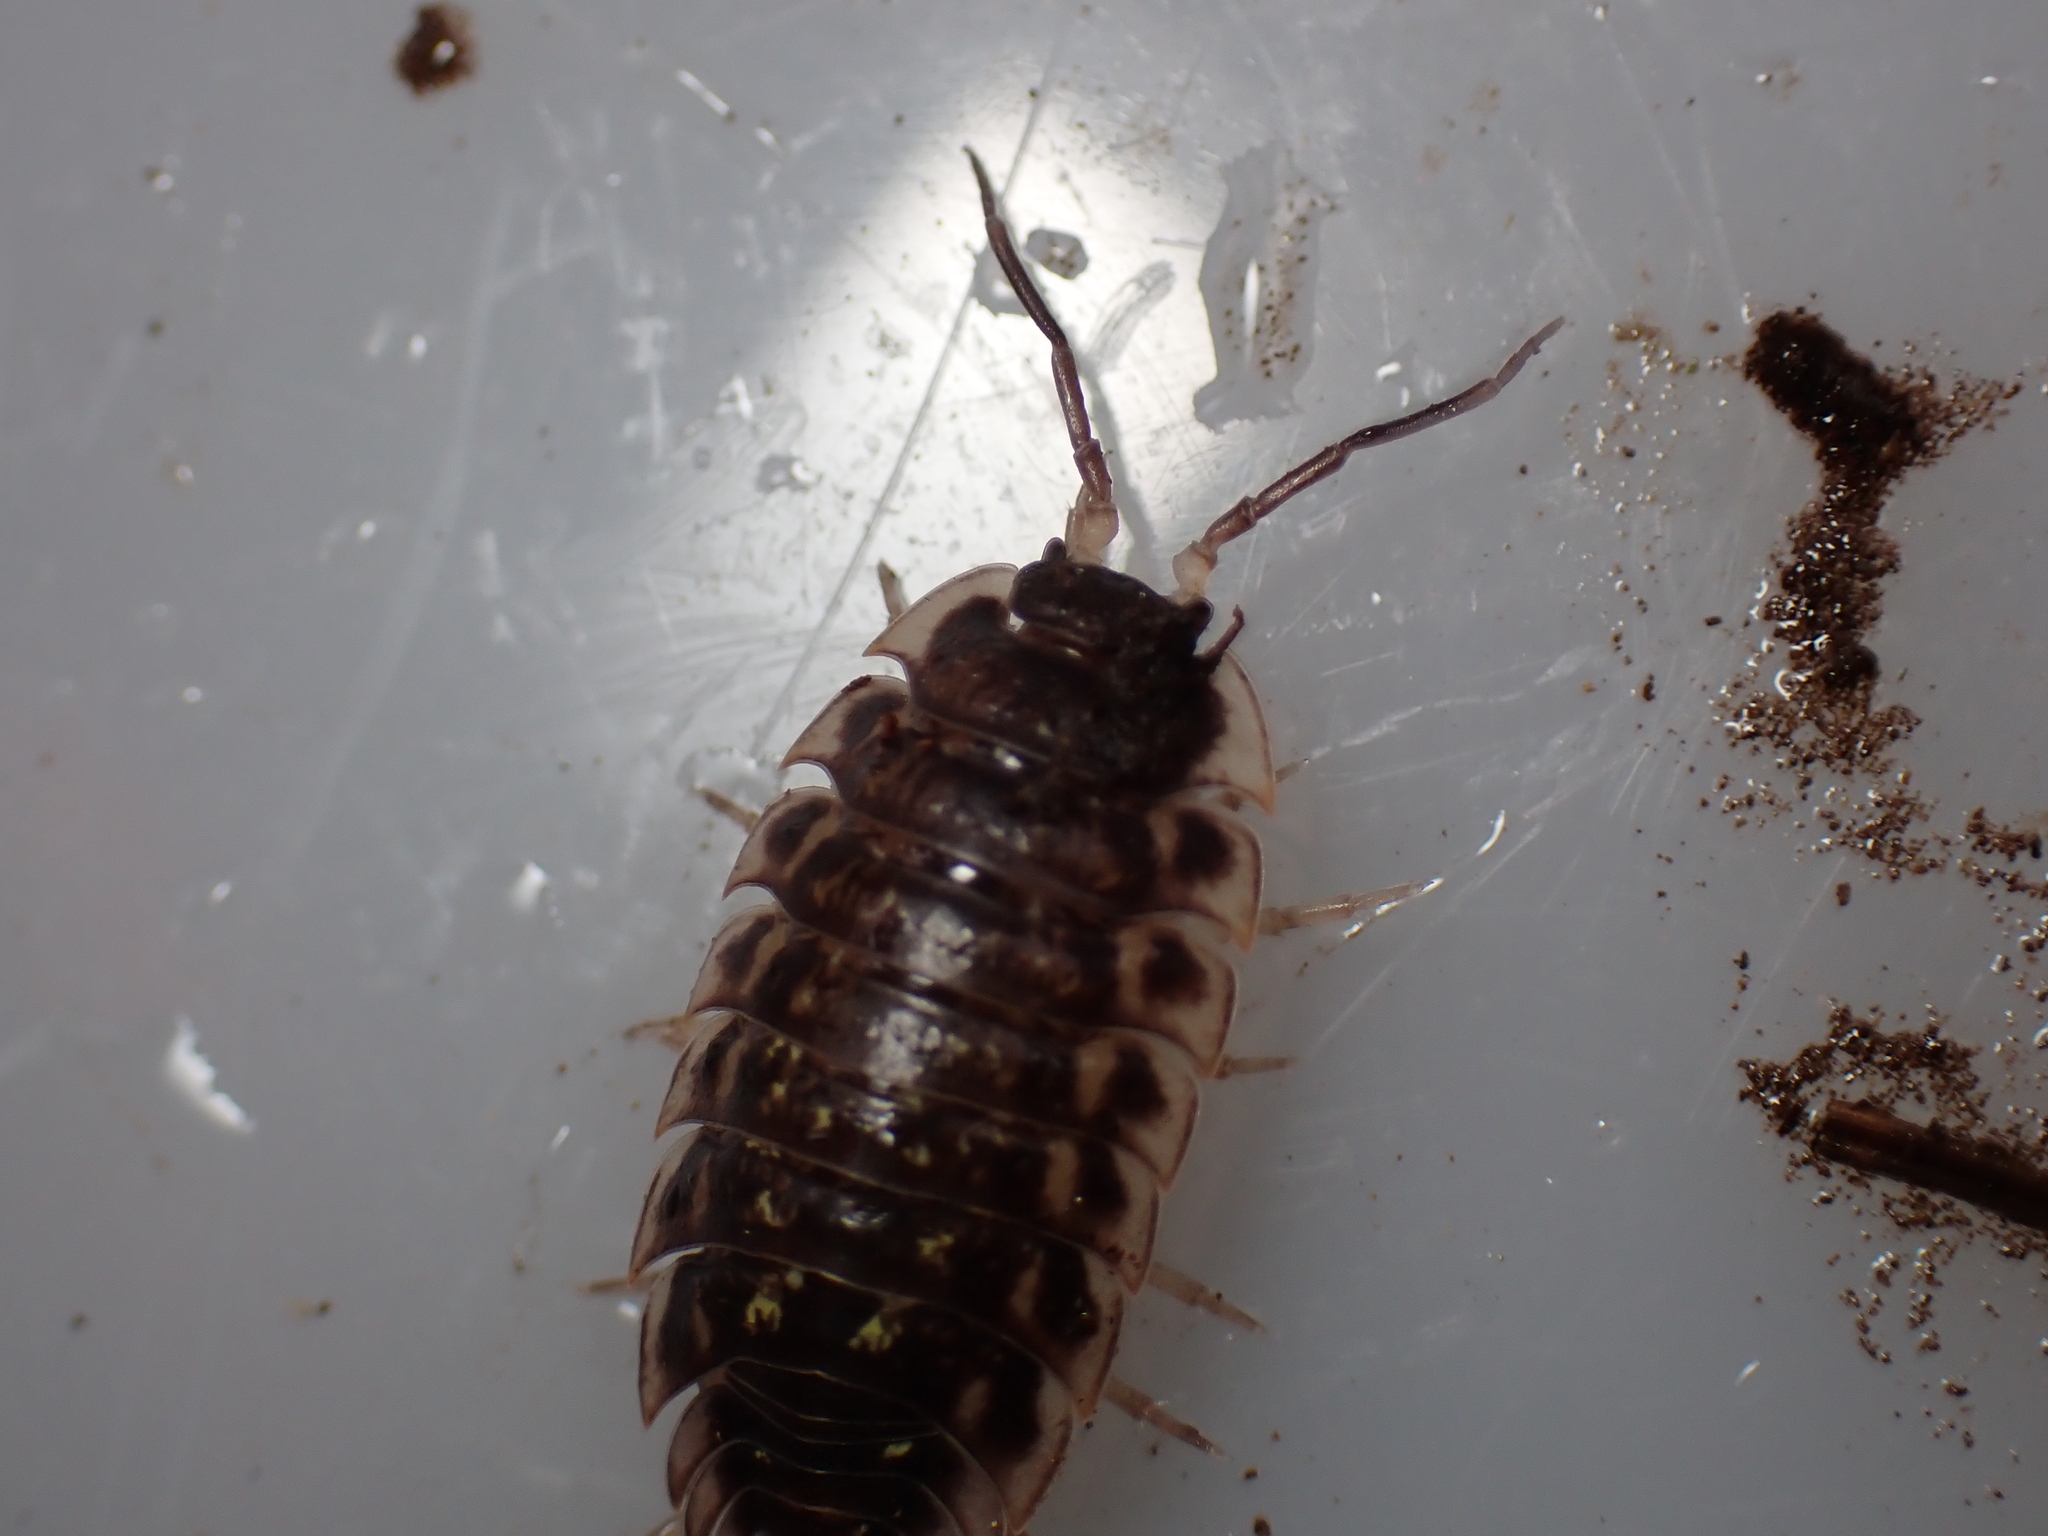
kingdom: Animalia
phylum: Arthropoda
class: Malacostraca
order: Isopoda
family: Oniscidae
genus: Oniscus
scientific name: Oniscus asellus
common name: Common shiny woodlouse
